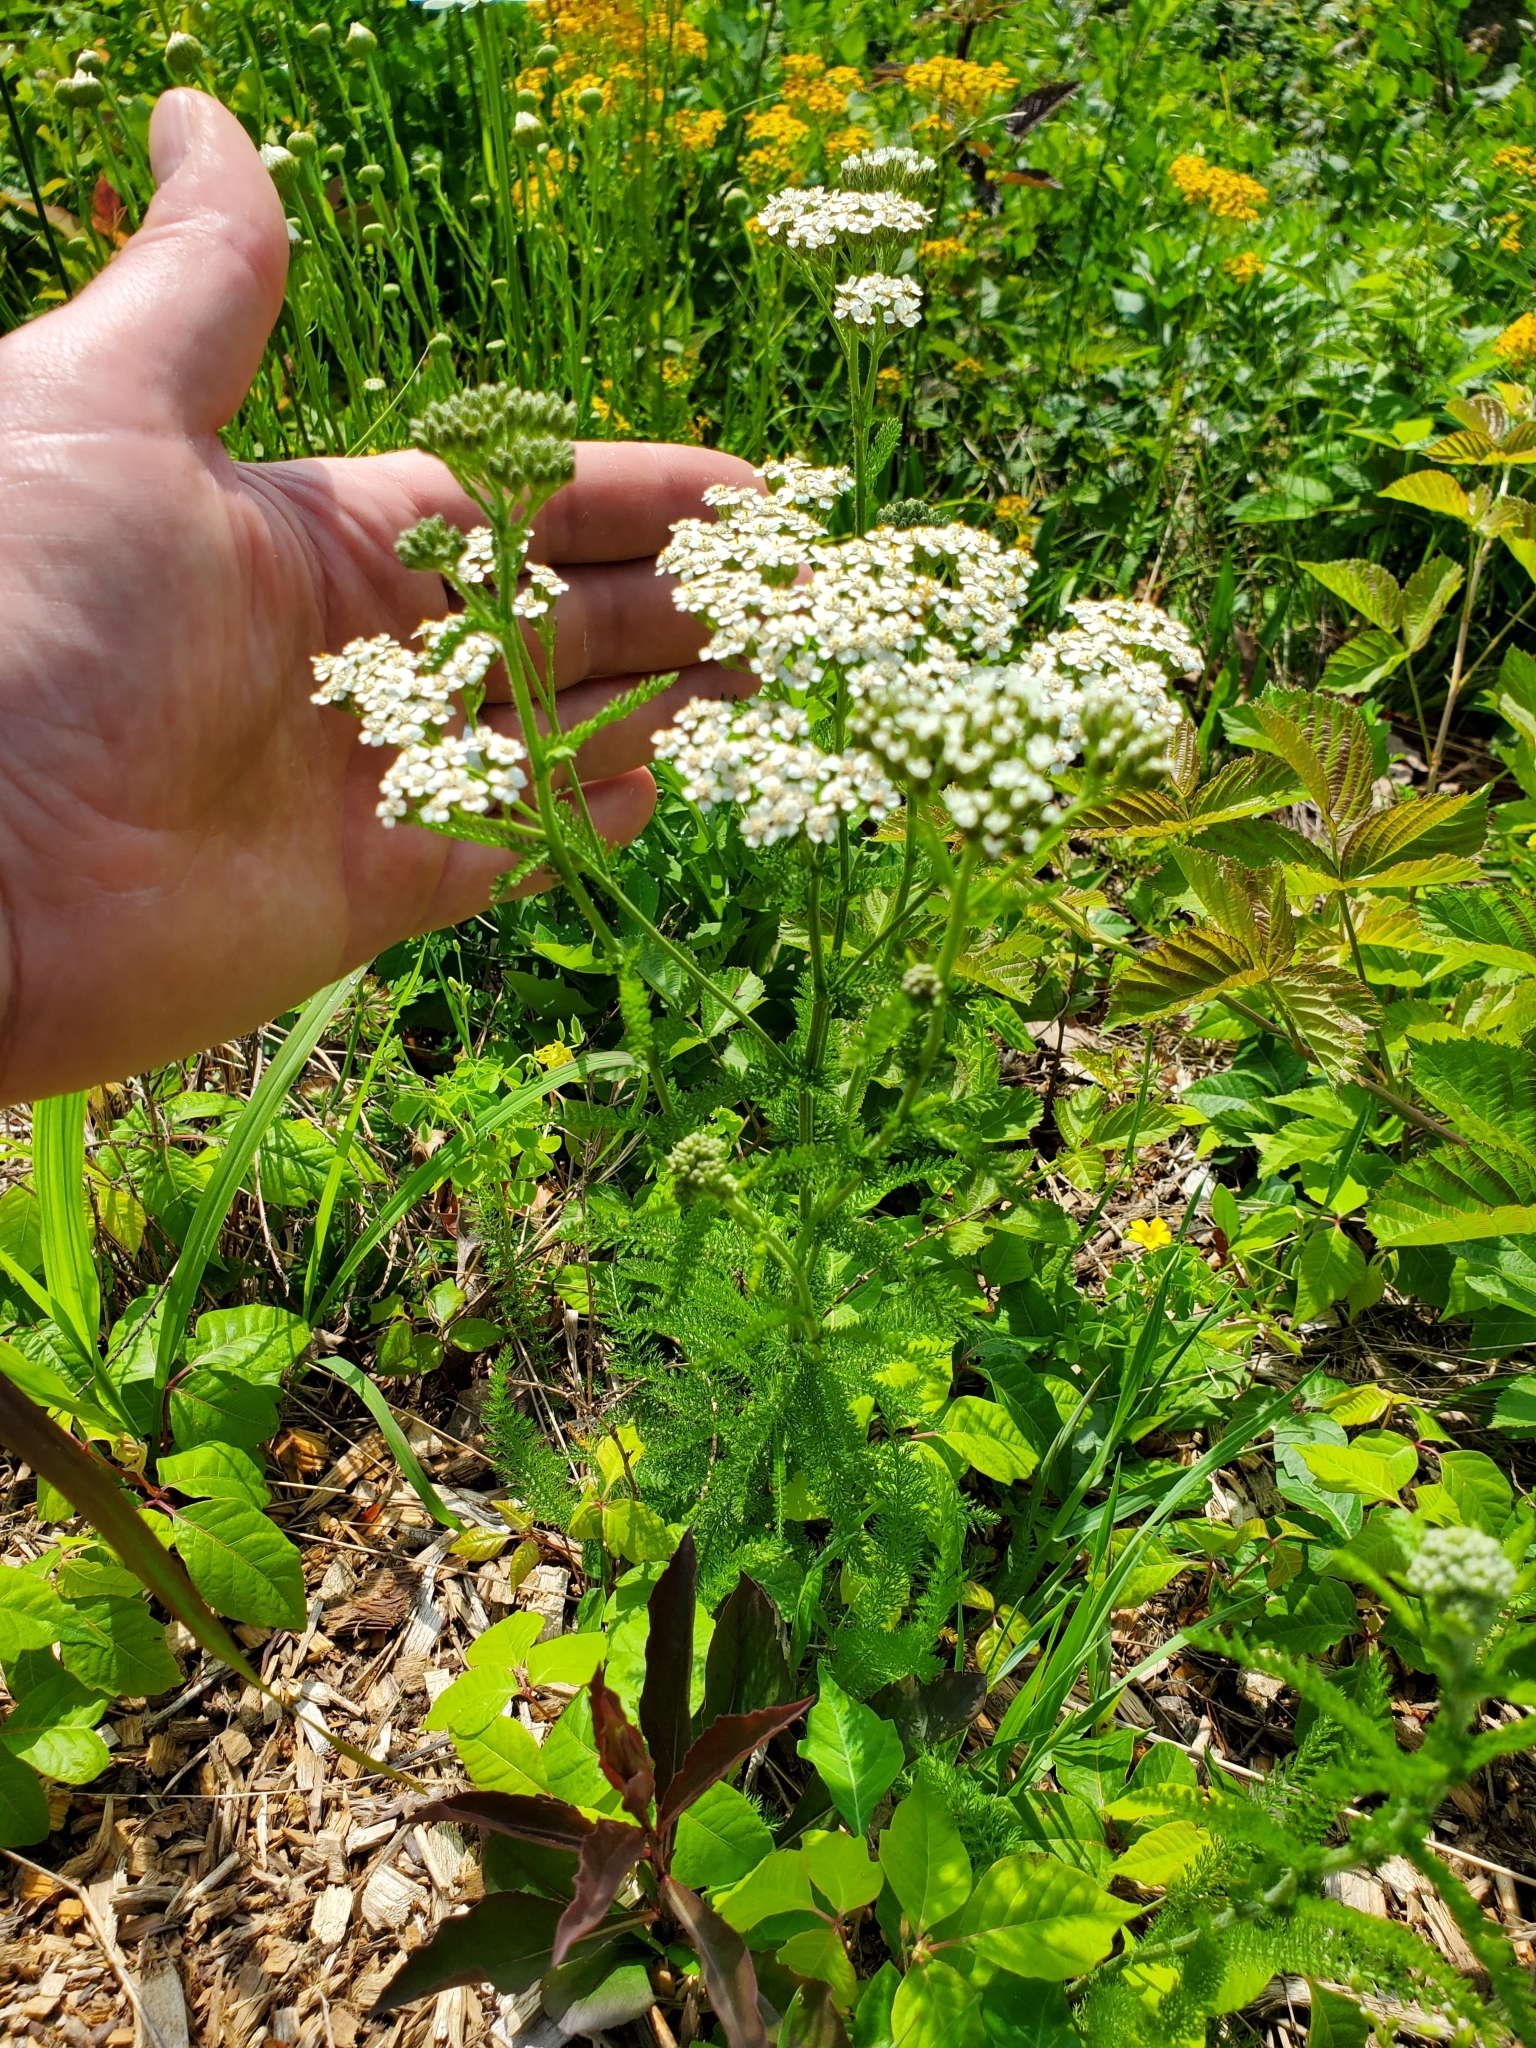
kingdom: Plantae
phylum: Tracheophyta
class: Magnoliopsida
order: Asterales
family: Asteraceae
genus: Achillea
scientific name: Achillea millefolium
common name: Yarrow
